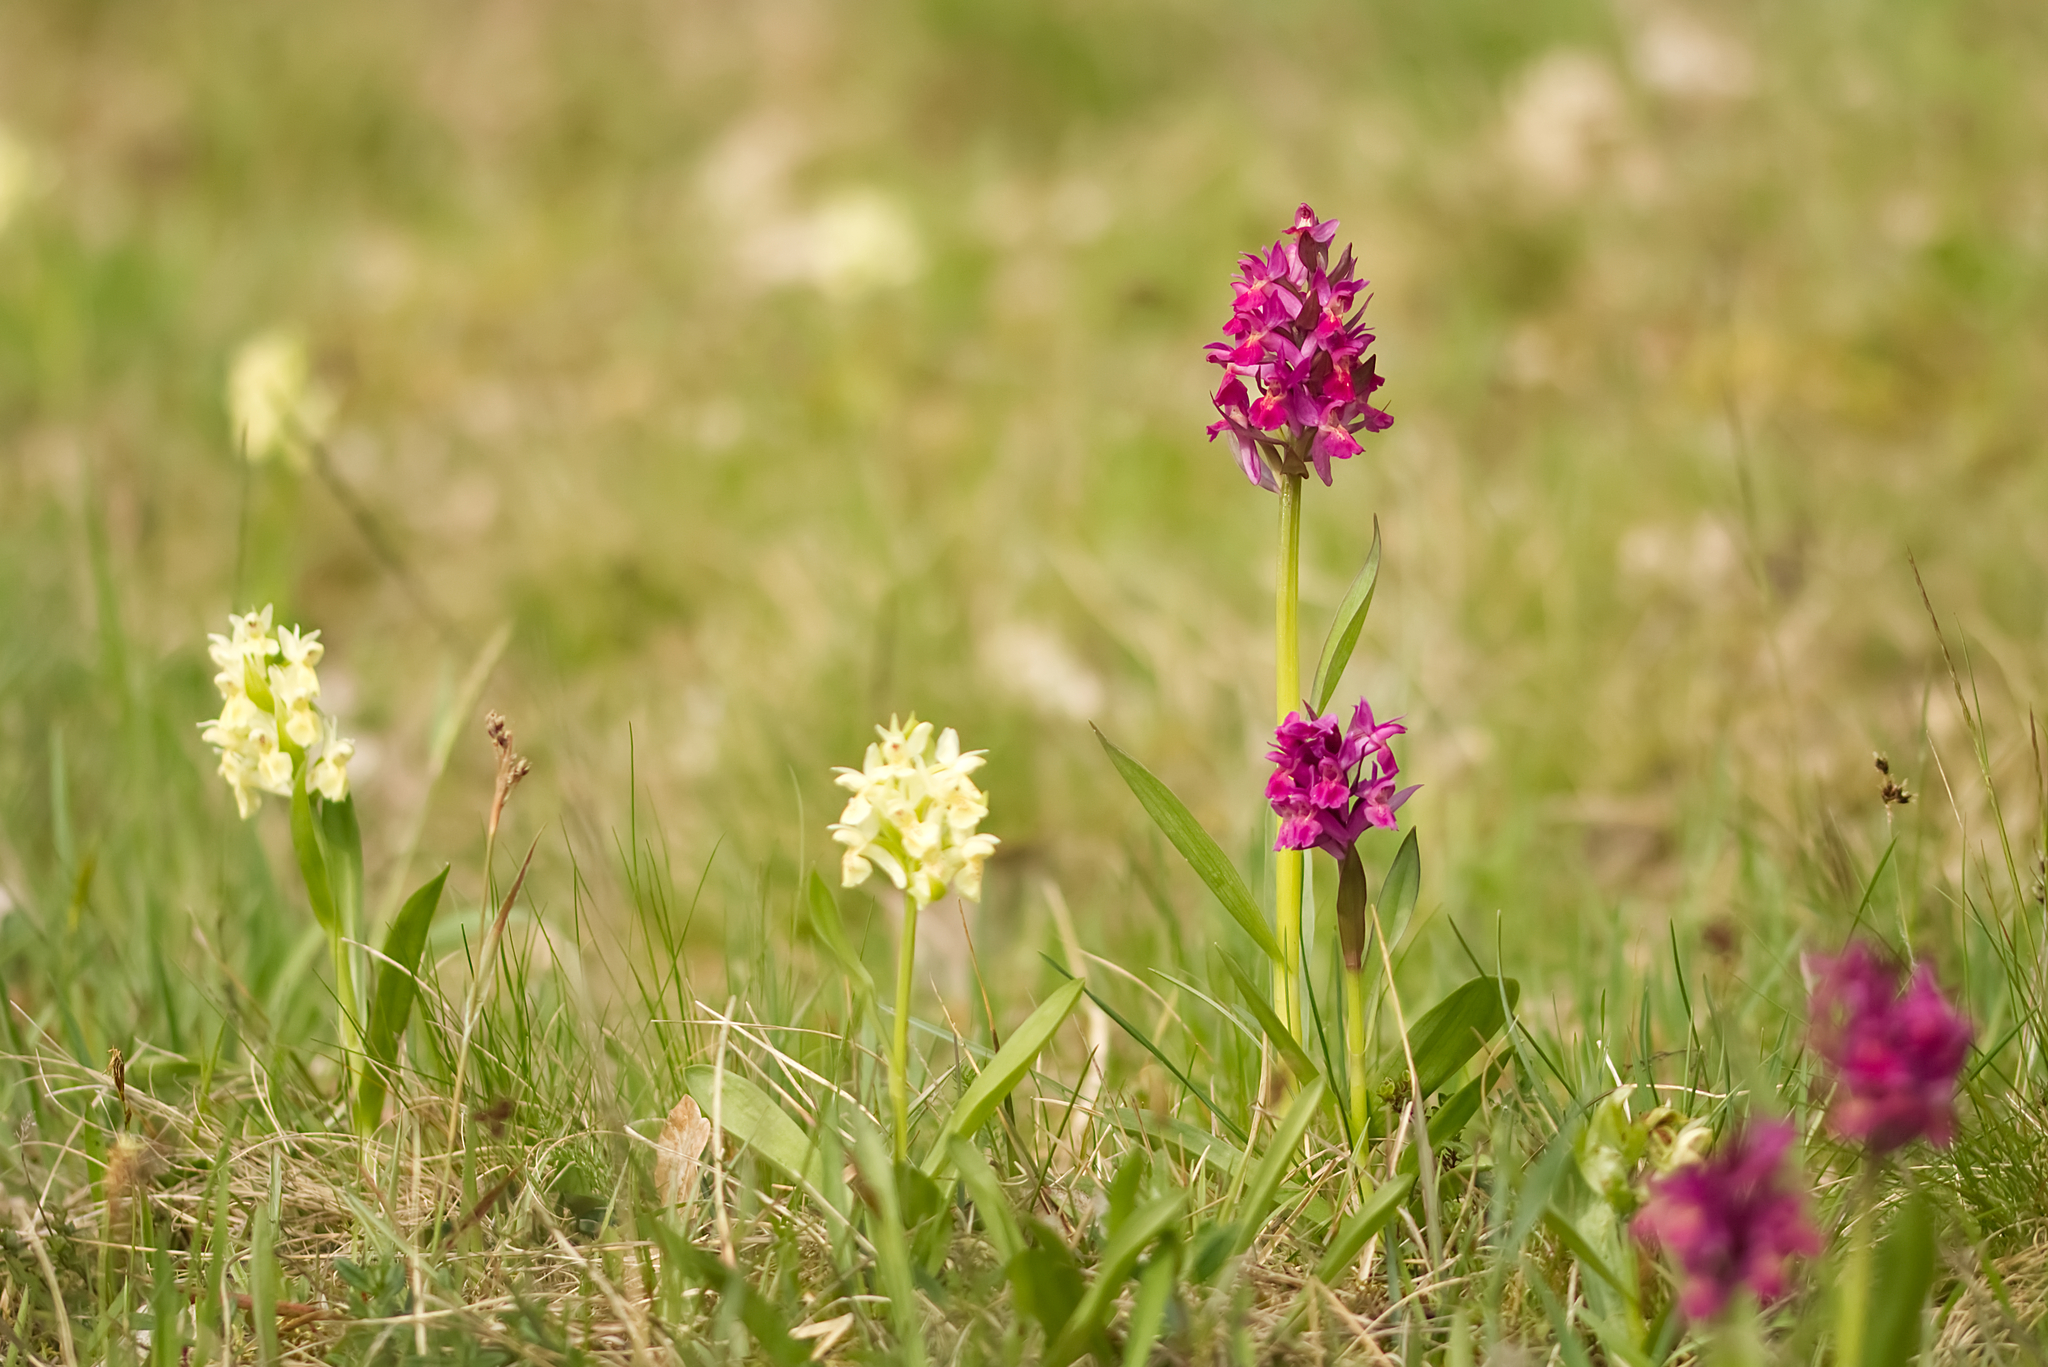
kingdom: Plantae
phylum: Tracheophyta
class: Liliopsida
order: Asparagales
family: Orchidaceae
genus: Dactylorhiza
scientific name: Dactylorhiza sambucina
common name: Elder-flowered orchid
